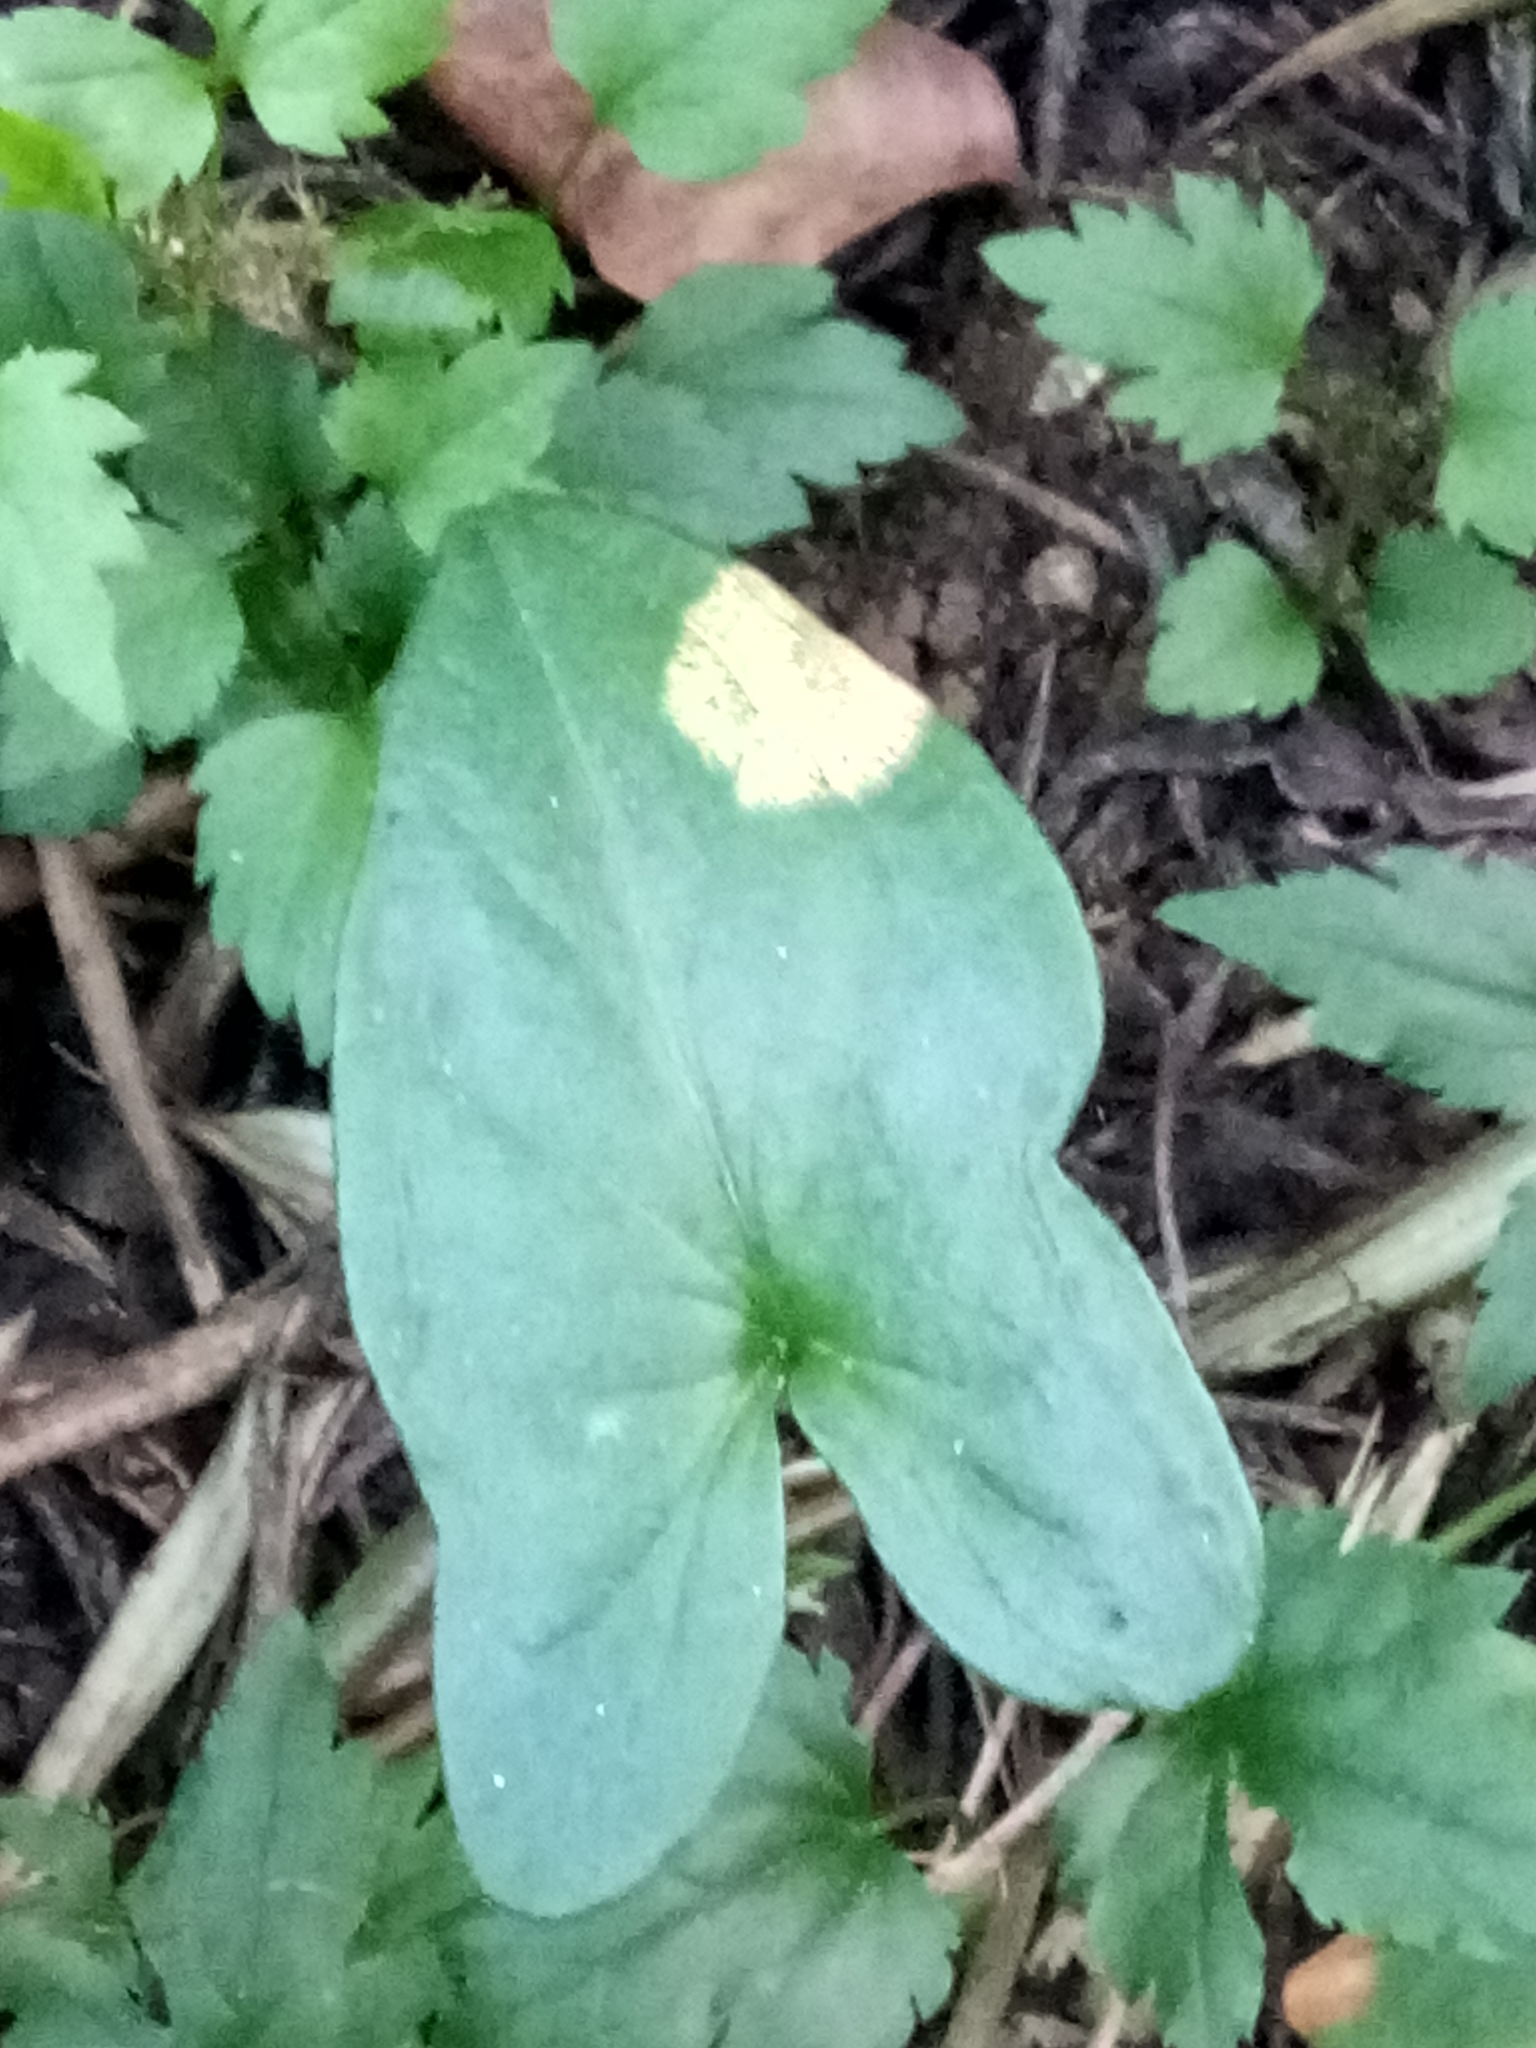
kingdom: Plantae
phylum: Tracheophyta
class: Liliopsida
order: Alismatales
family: Araceae
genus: Arisarum
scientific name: Arisarum vulgare
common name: Common arisarum
